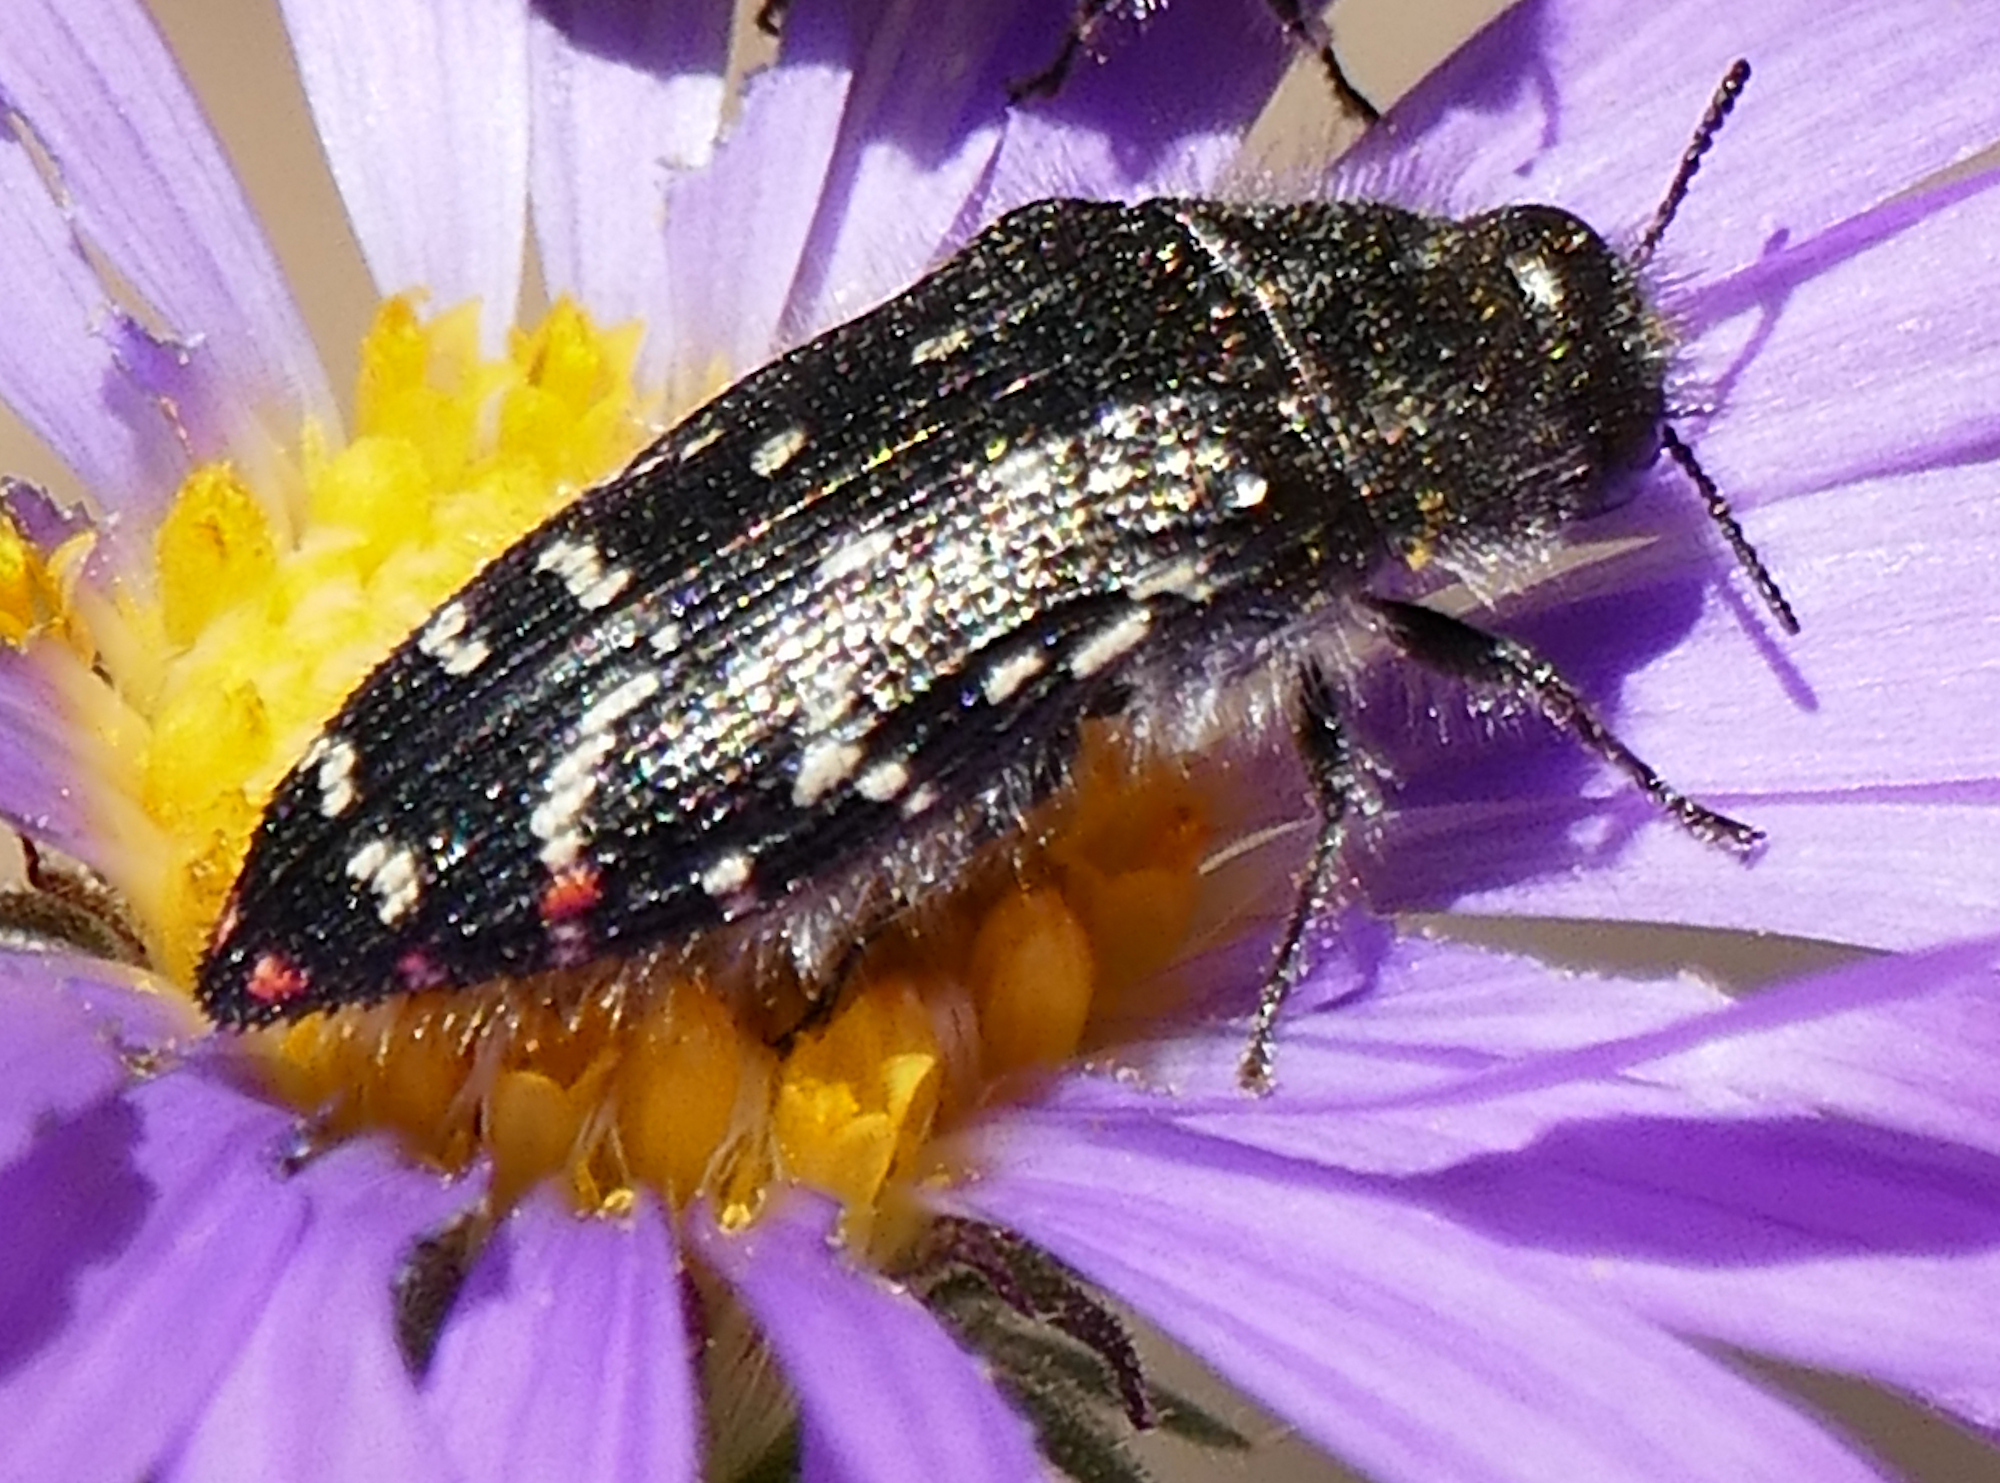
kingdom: Animalia
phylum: Arthropoda
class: Insecta
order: Coleoptera
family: Buprestidae
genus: Acmaeodera
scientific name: Acmaeodera rubronotata
